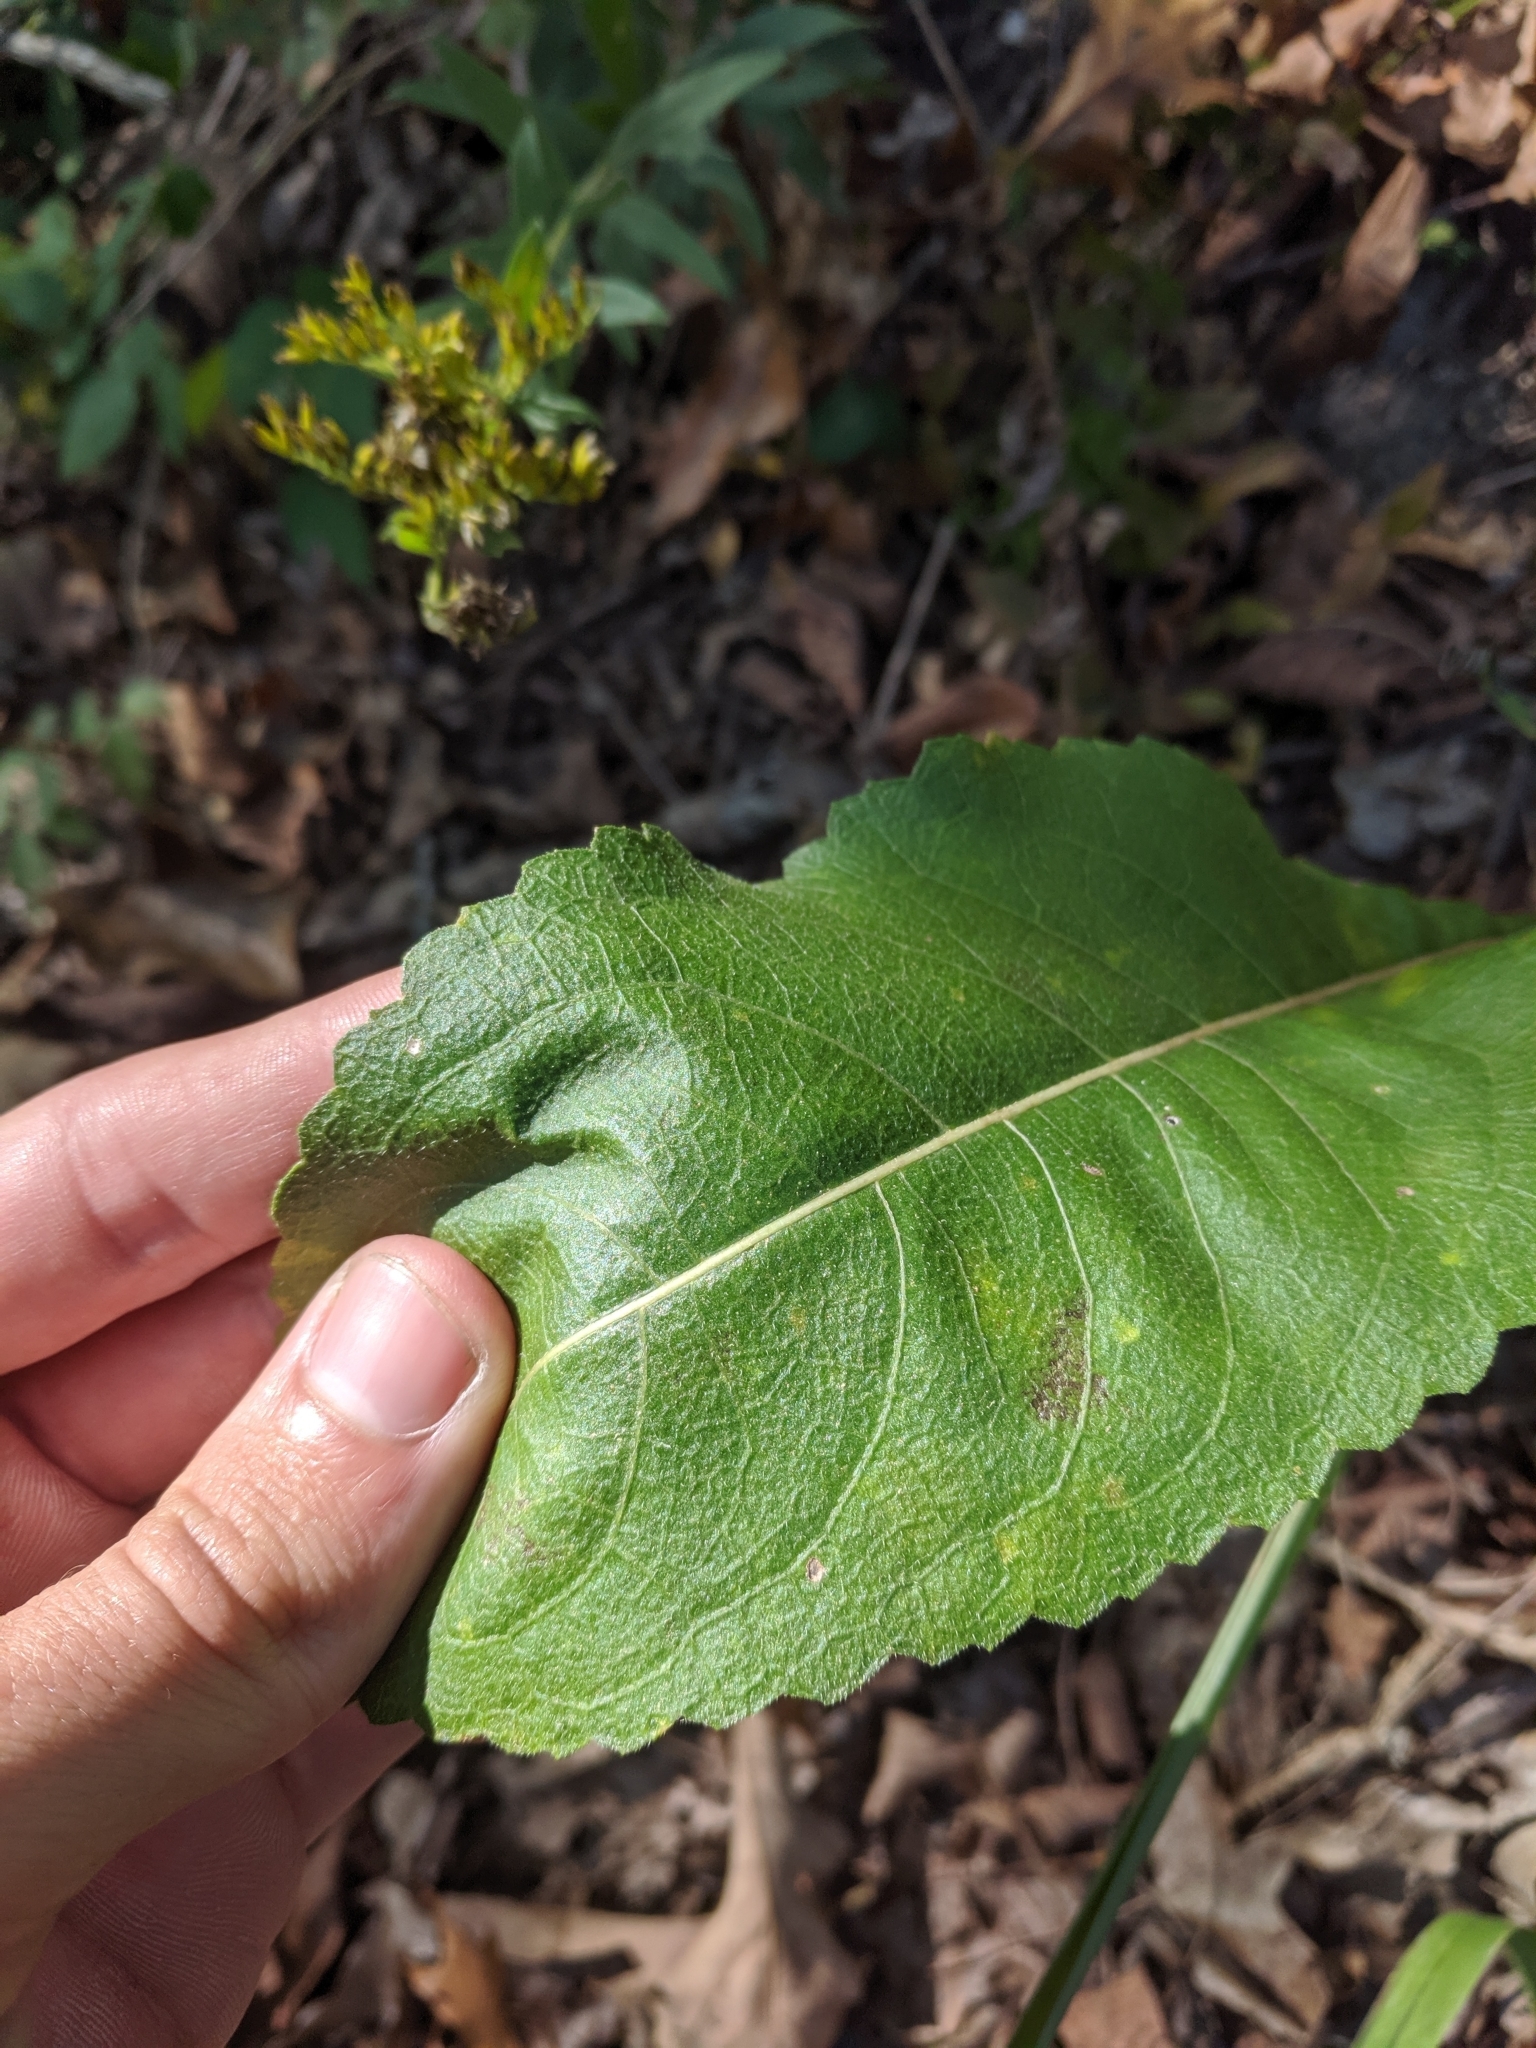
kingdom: Plantae
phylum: Tracheophyta
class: Magnoliopsida
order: Asterales
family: Asteraceae
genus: Parthenium
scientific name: Parthenium integrifolium
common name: American feverfew
